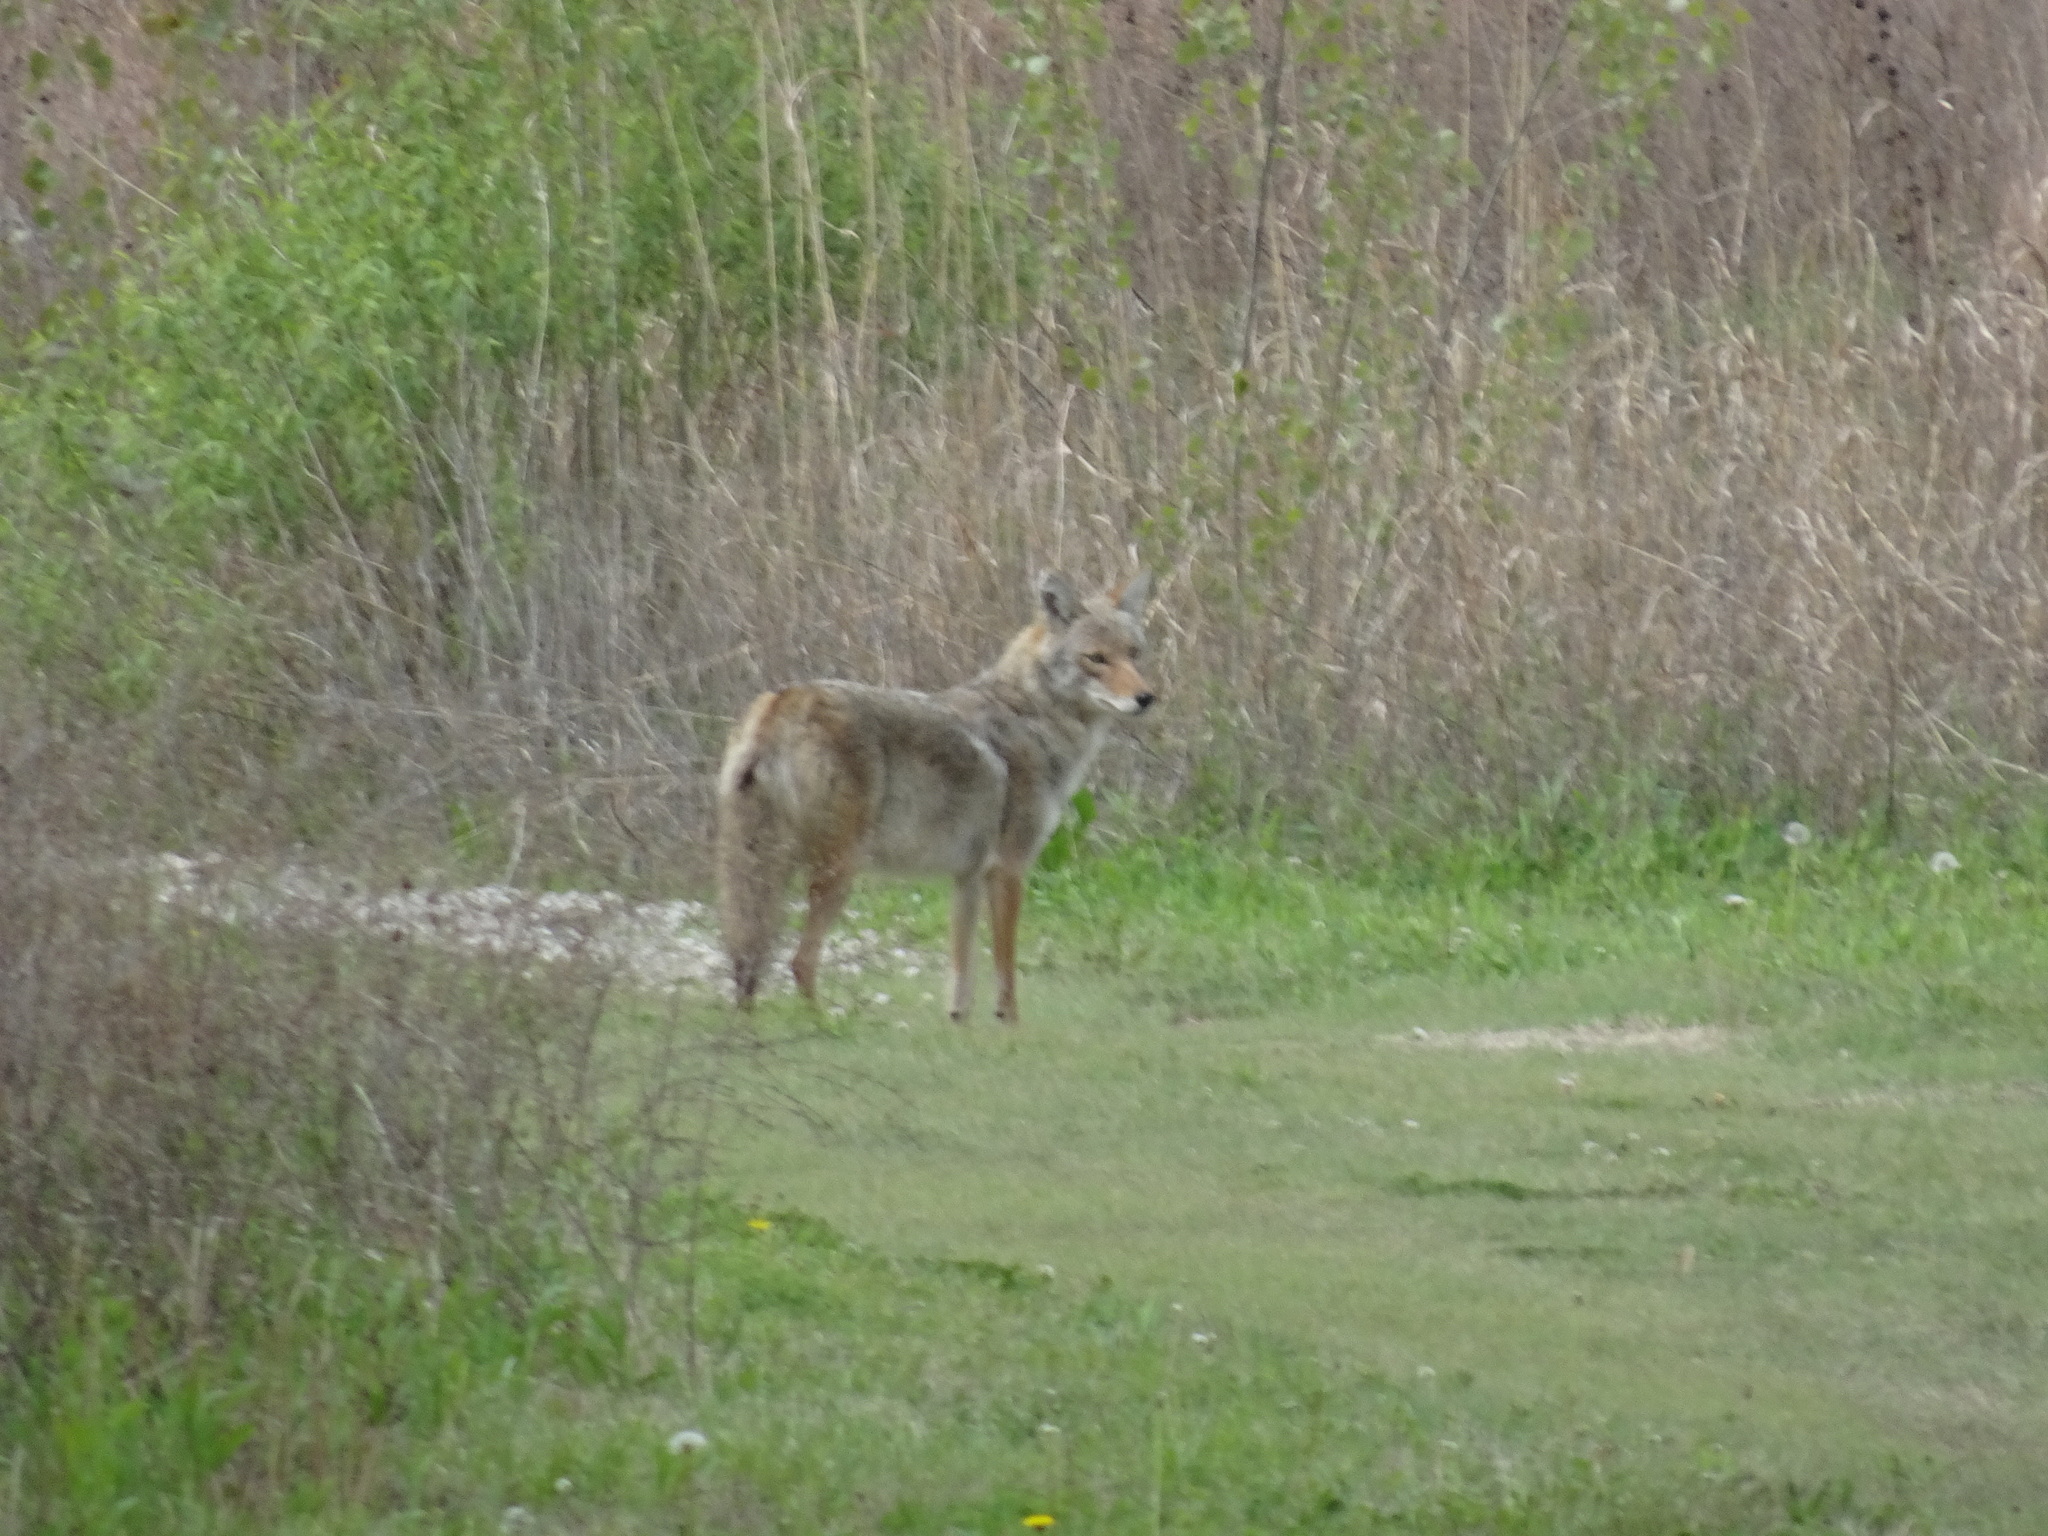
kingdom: Animalia
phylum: Chordata
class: Mammalia
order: Carnivora
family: Canidae
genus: Canis
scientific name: Canis latrans
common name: Coyote
